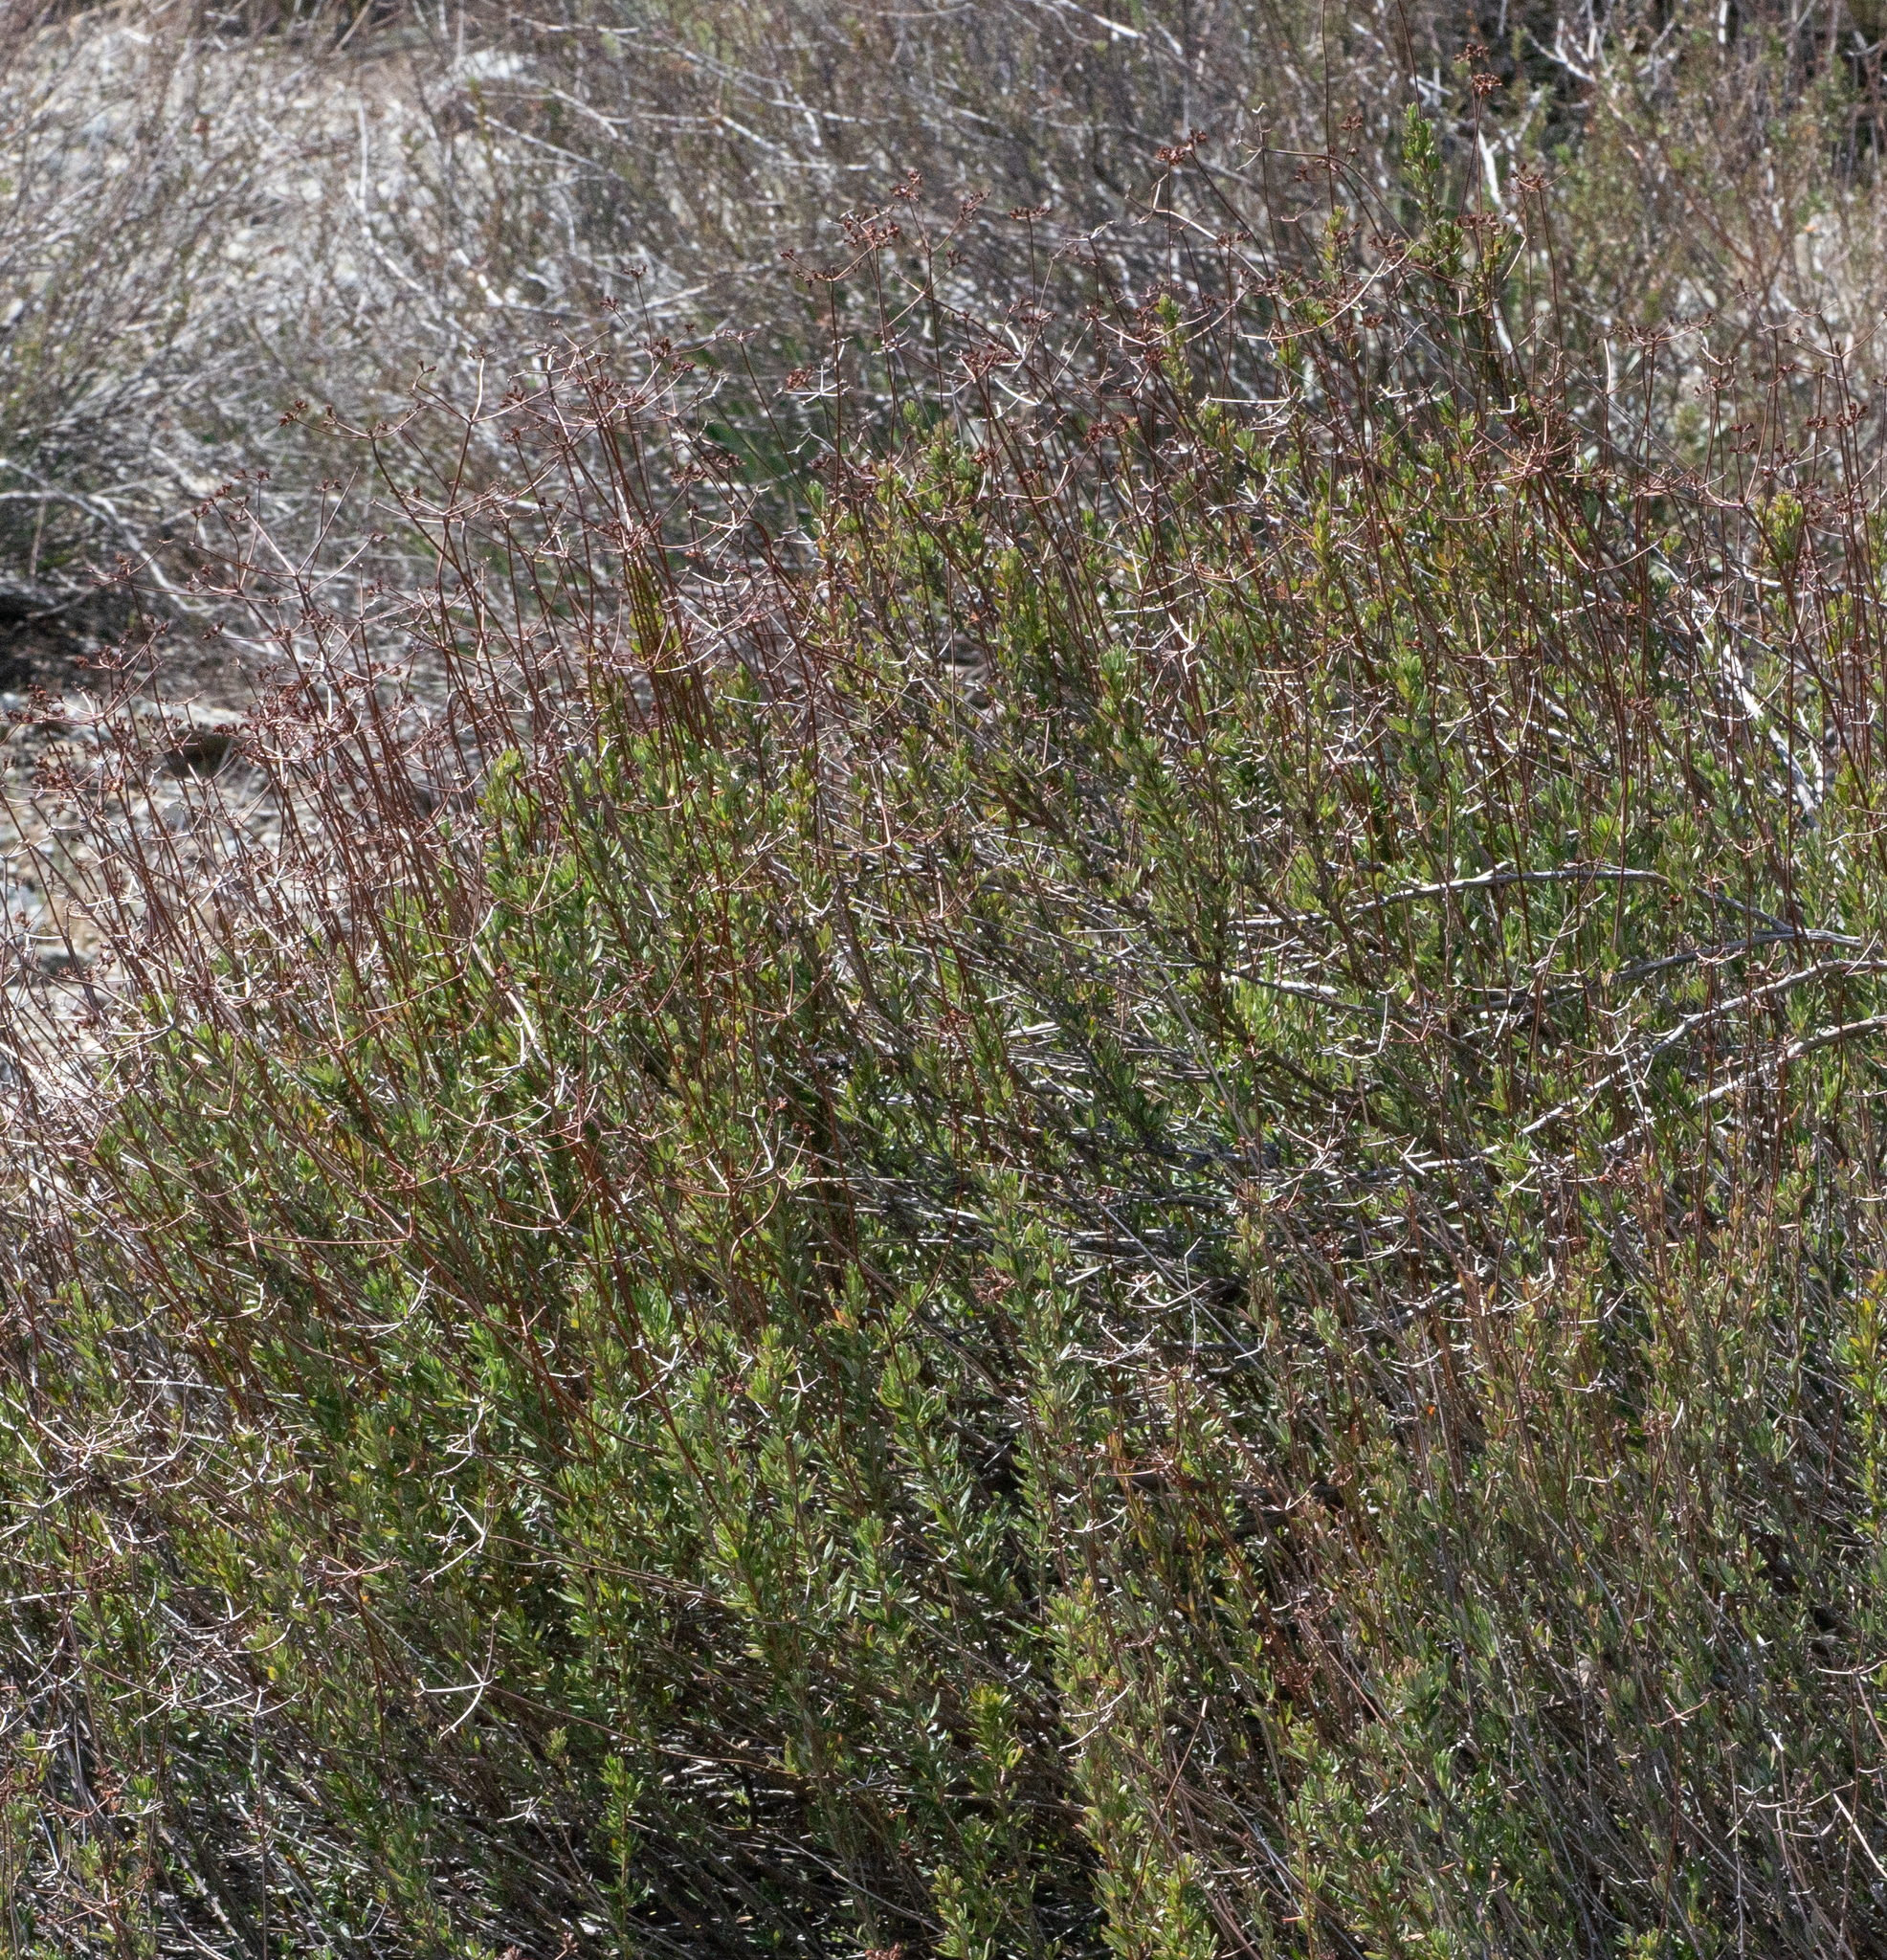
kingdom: Plantae
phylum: Tracheophyta
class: Magnoliopsida
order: Caryophyllales
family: Polygonaceae
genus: Eriogonum
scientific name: Eriogonum fasciculatum
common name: California wild buckwheat
